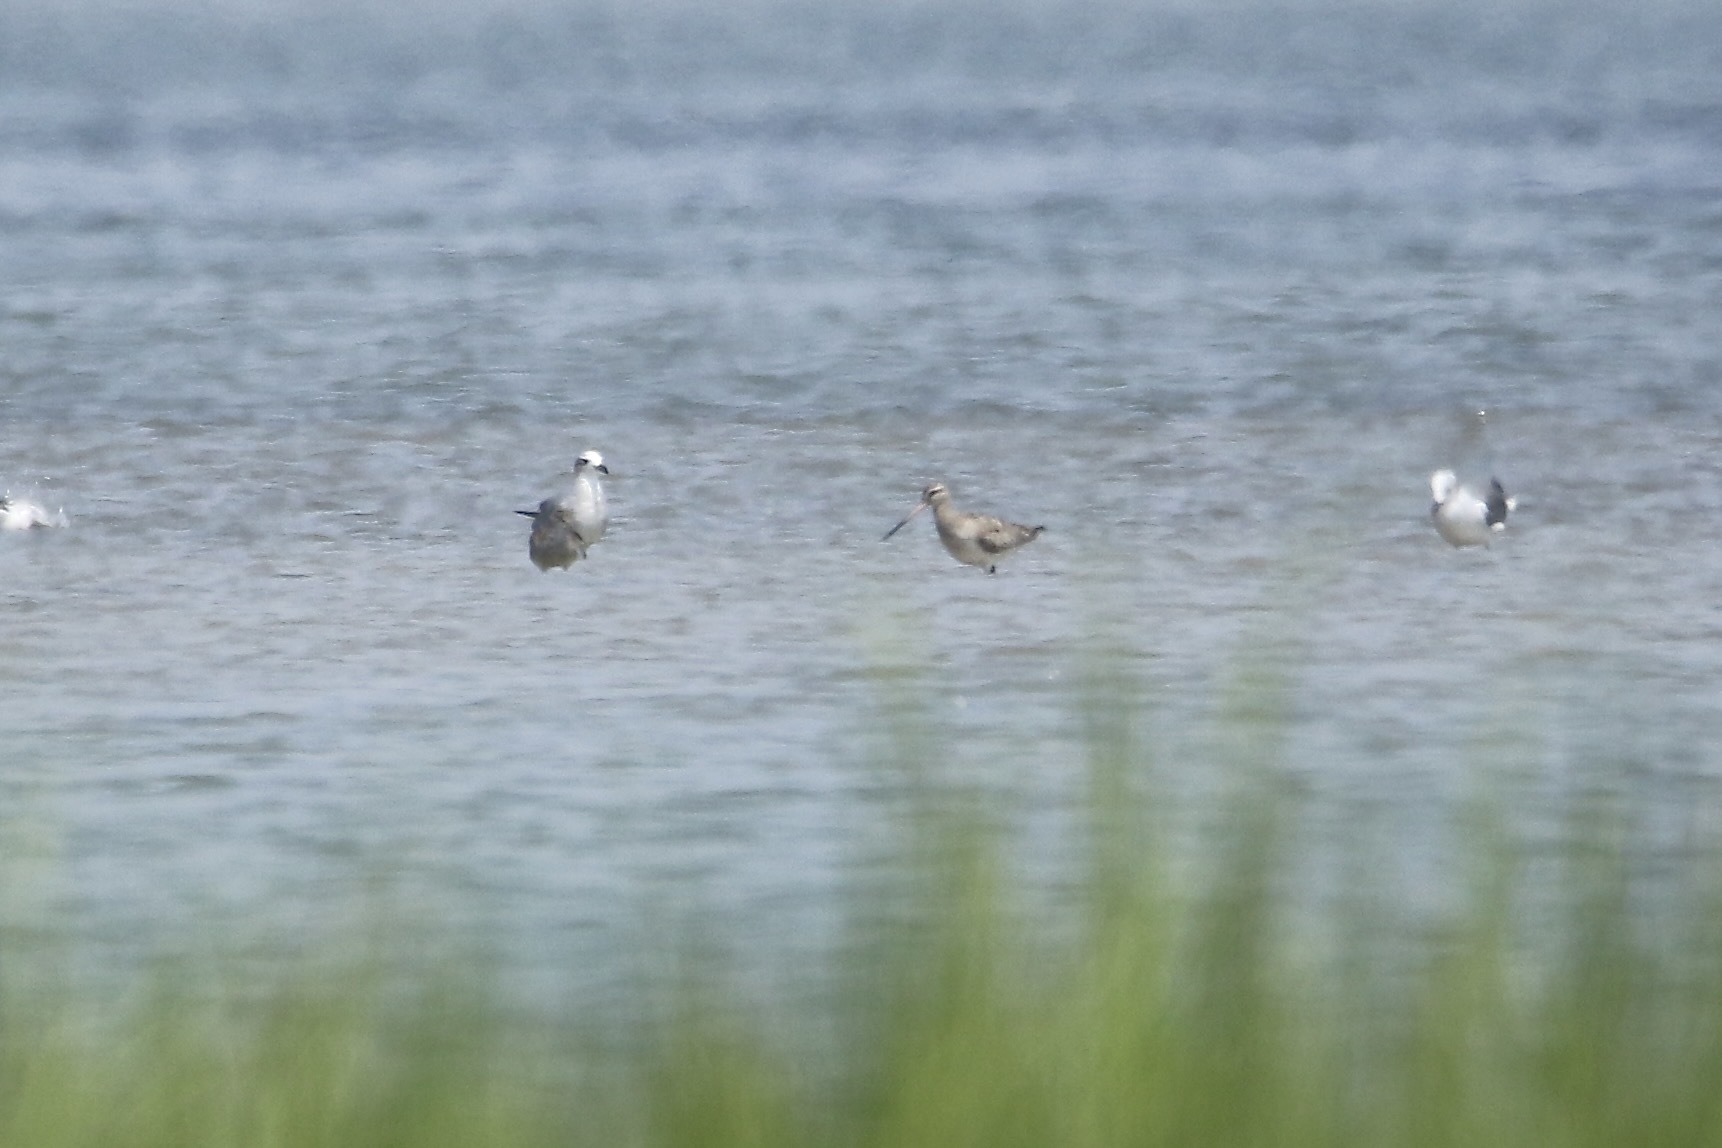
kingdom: Animalia
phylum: Chordata
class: Aves
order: Charadriiformes
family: Scolopacidae
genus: Limosa
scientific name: Limosa lapponica
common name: Bar-tailed godwit
